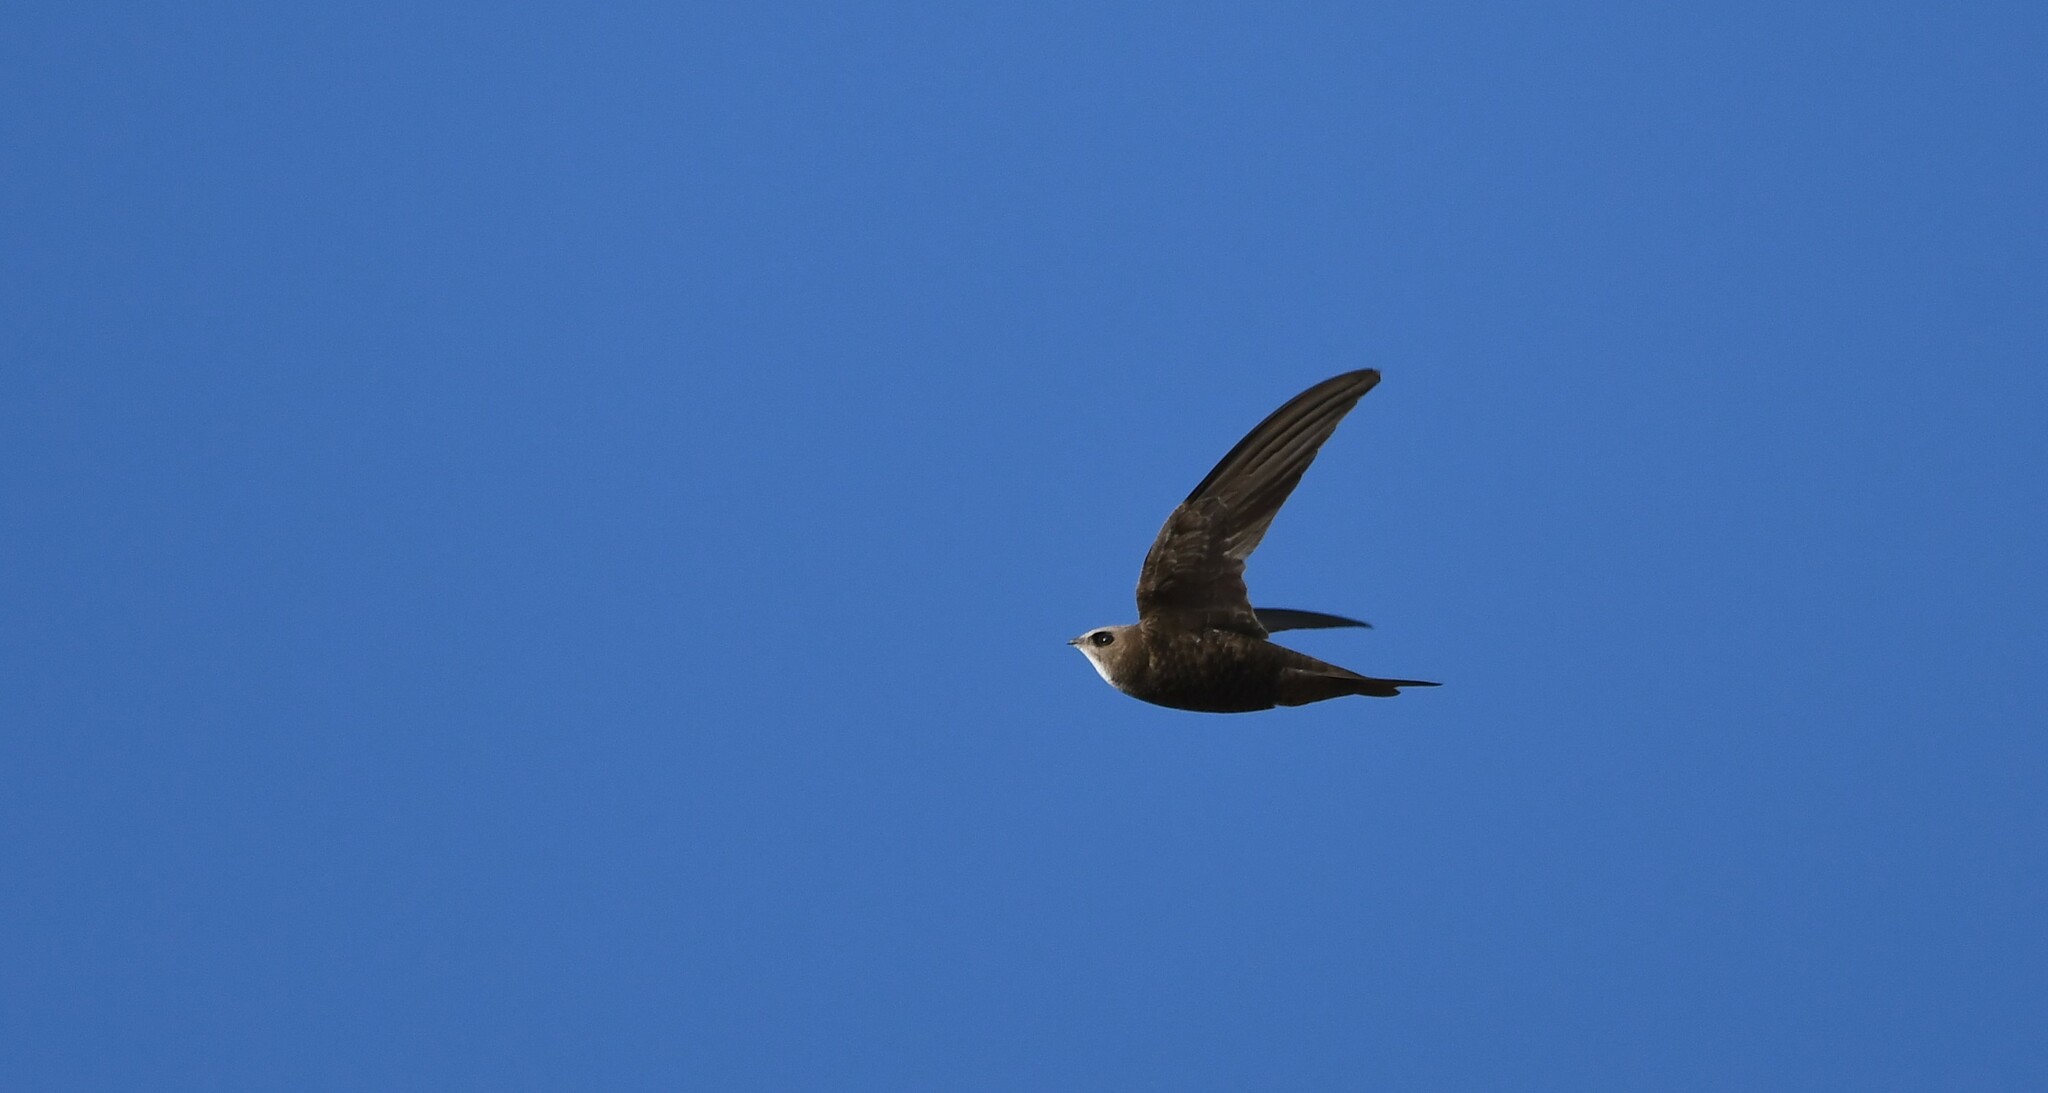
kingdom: Animalia
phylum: Chordata
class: Aves
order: Apodiformes
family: Apodidae
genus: Apus
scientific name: Apus pallidus
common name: Pallid swift
